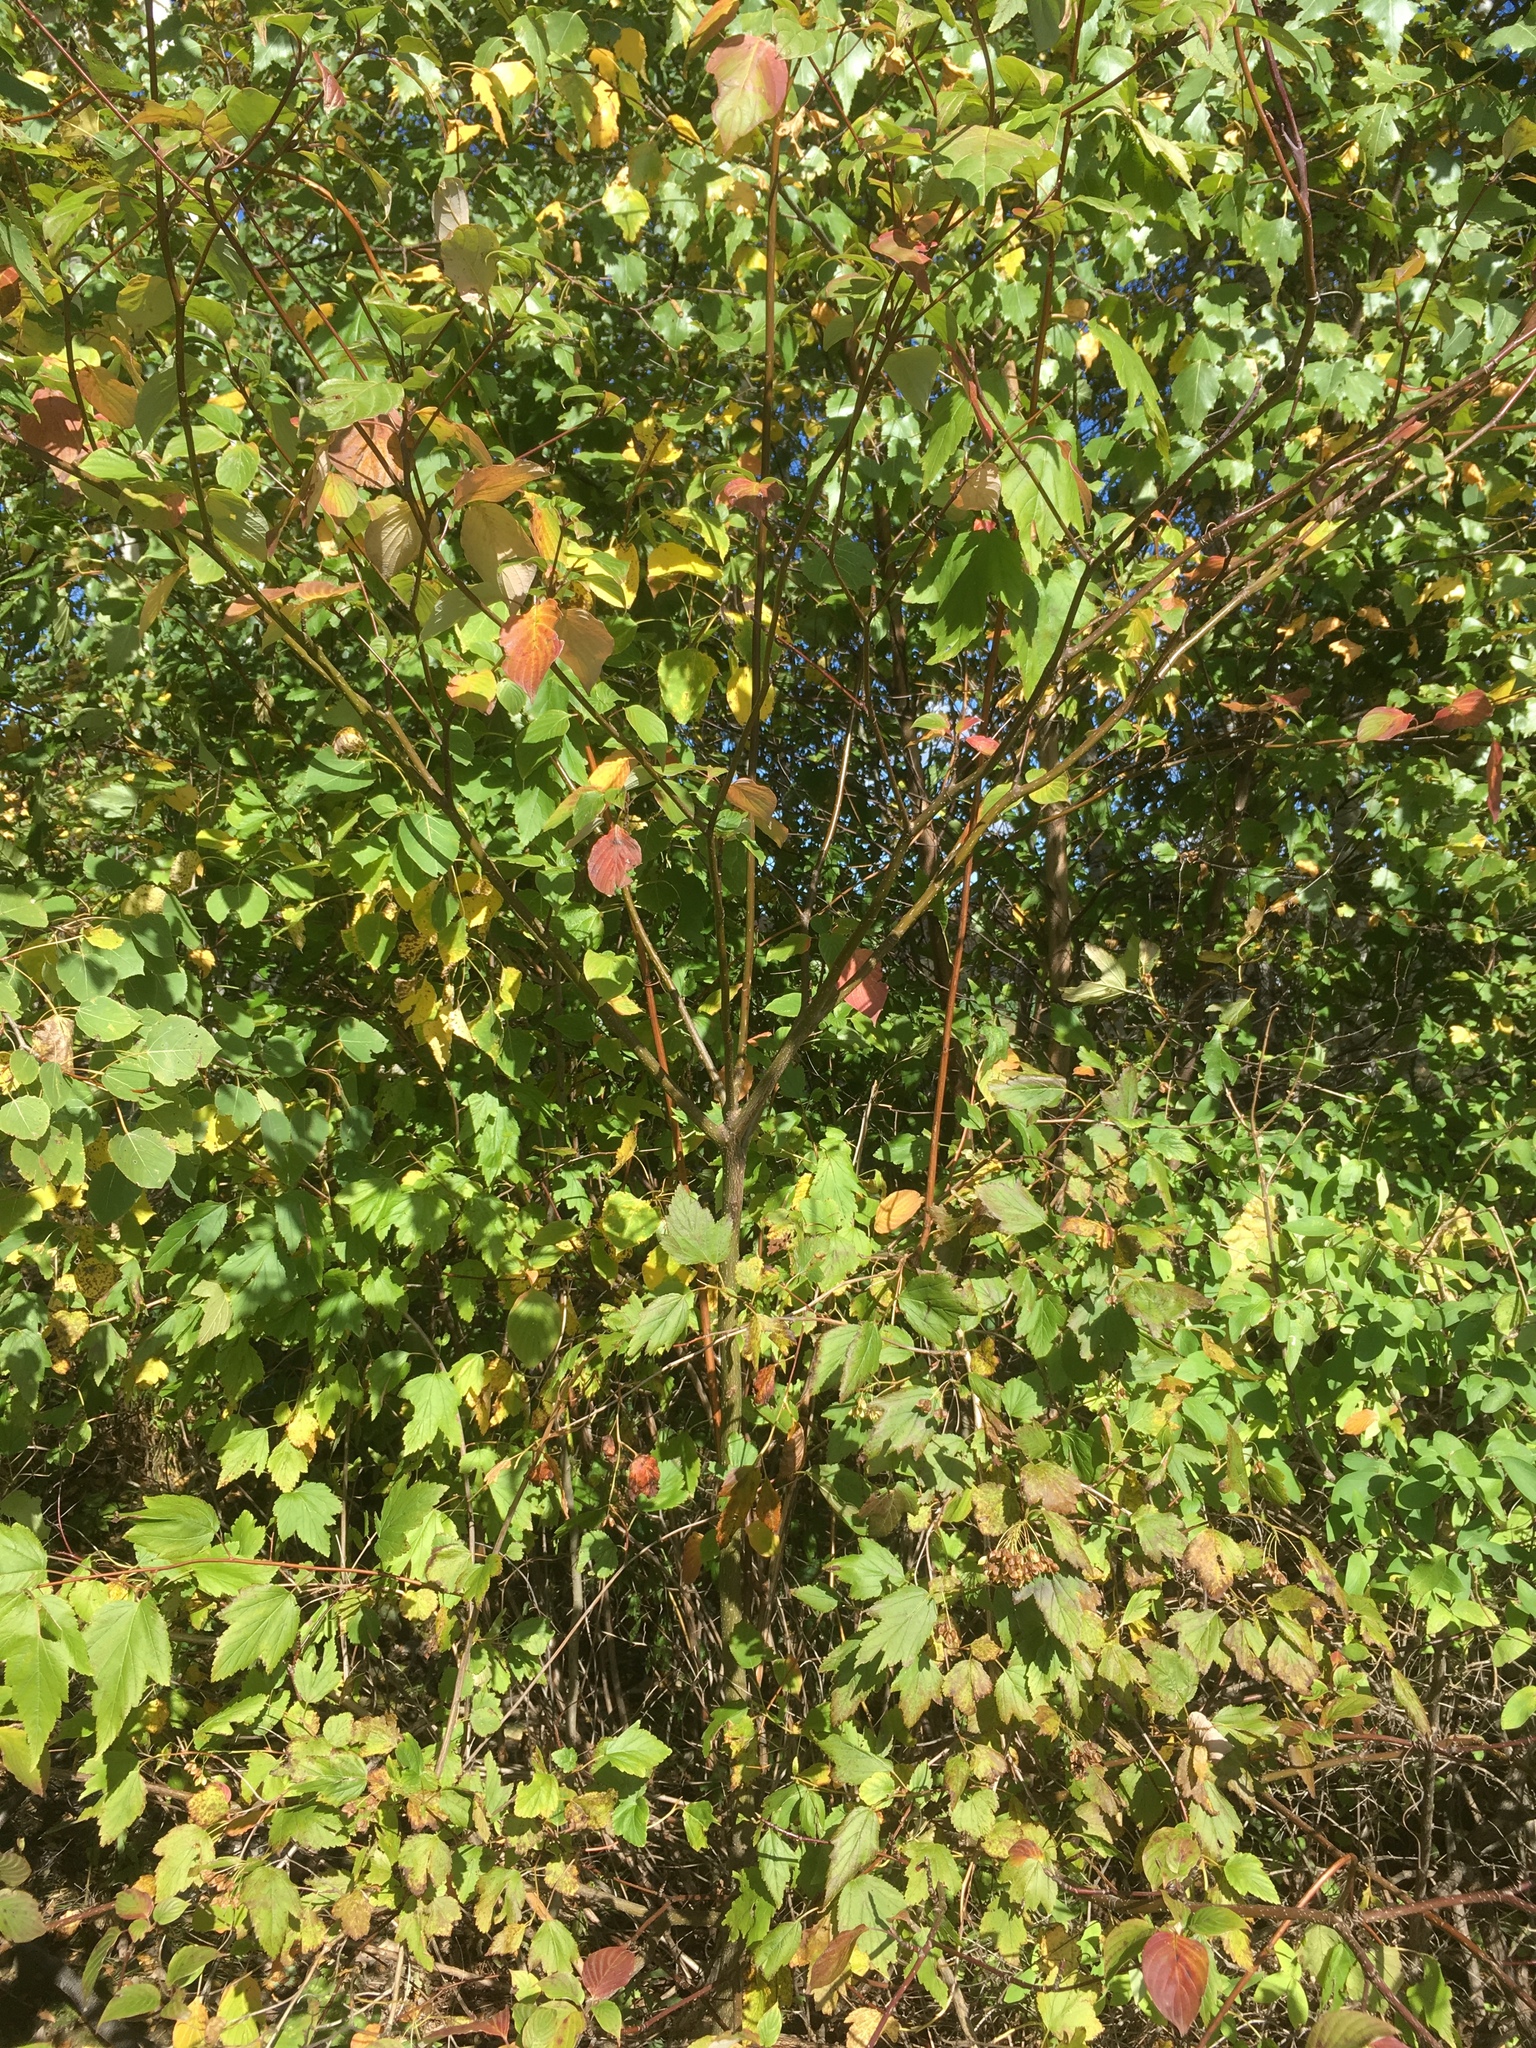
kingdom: Plantae
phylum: Tracheophyta
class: Magnoliopsida
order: Cornales
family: Cornaceae
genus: Cornus
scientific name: Cornus alternifolia
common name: Pagoda dogwood
